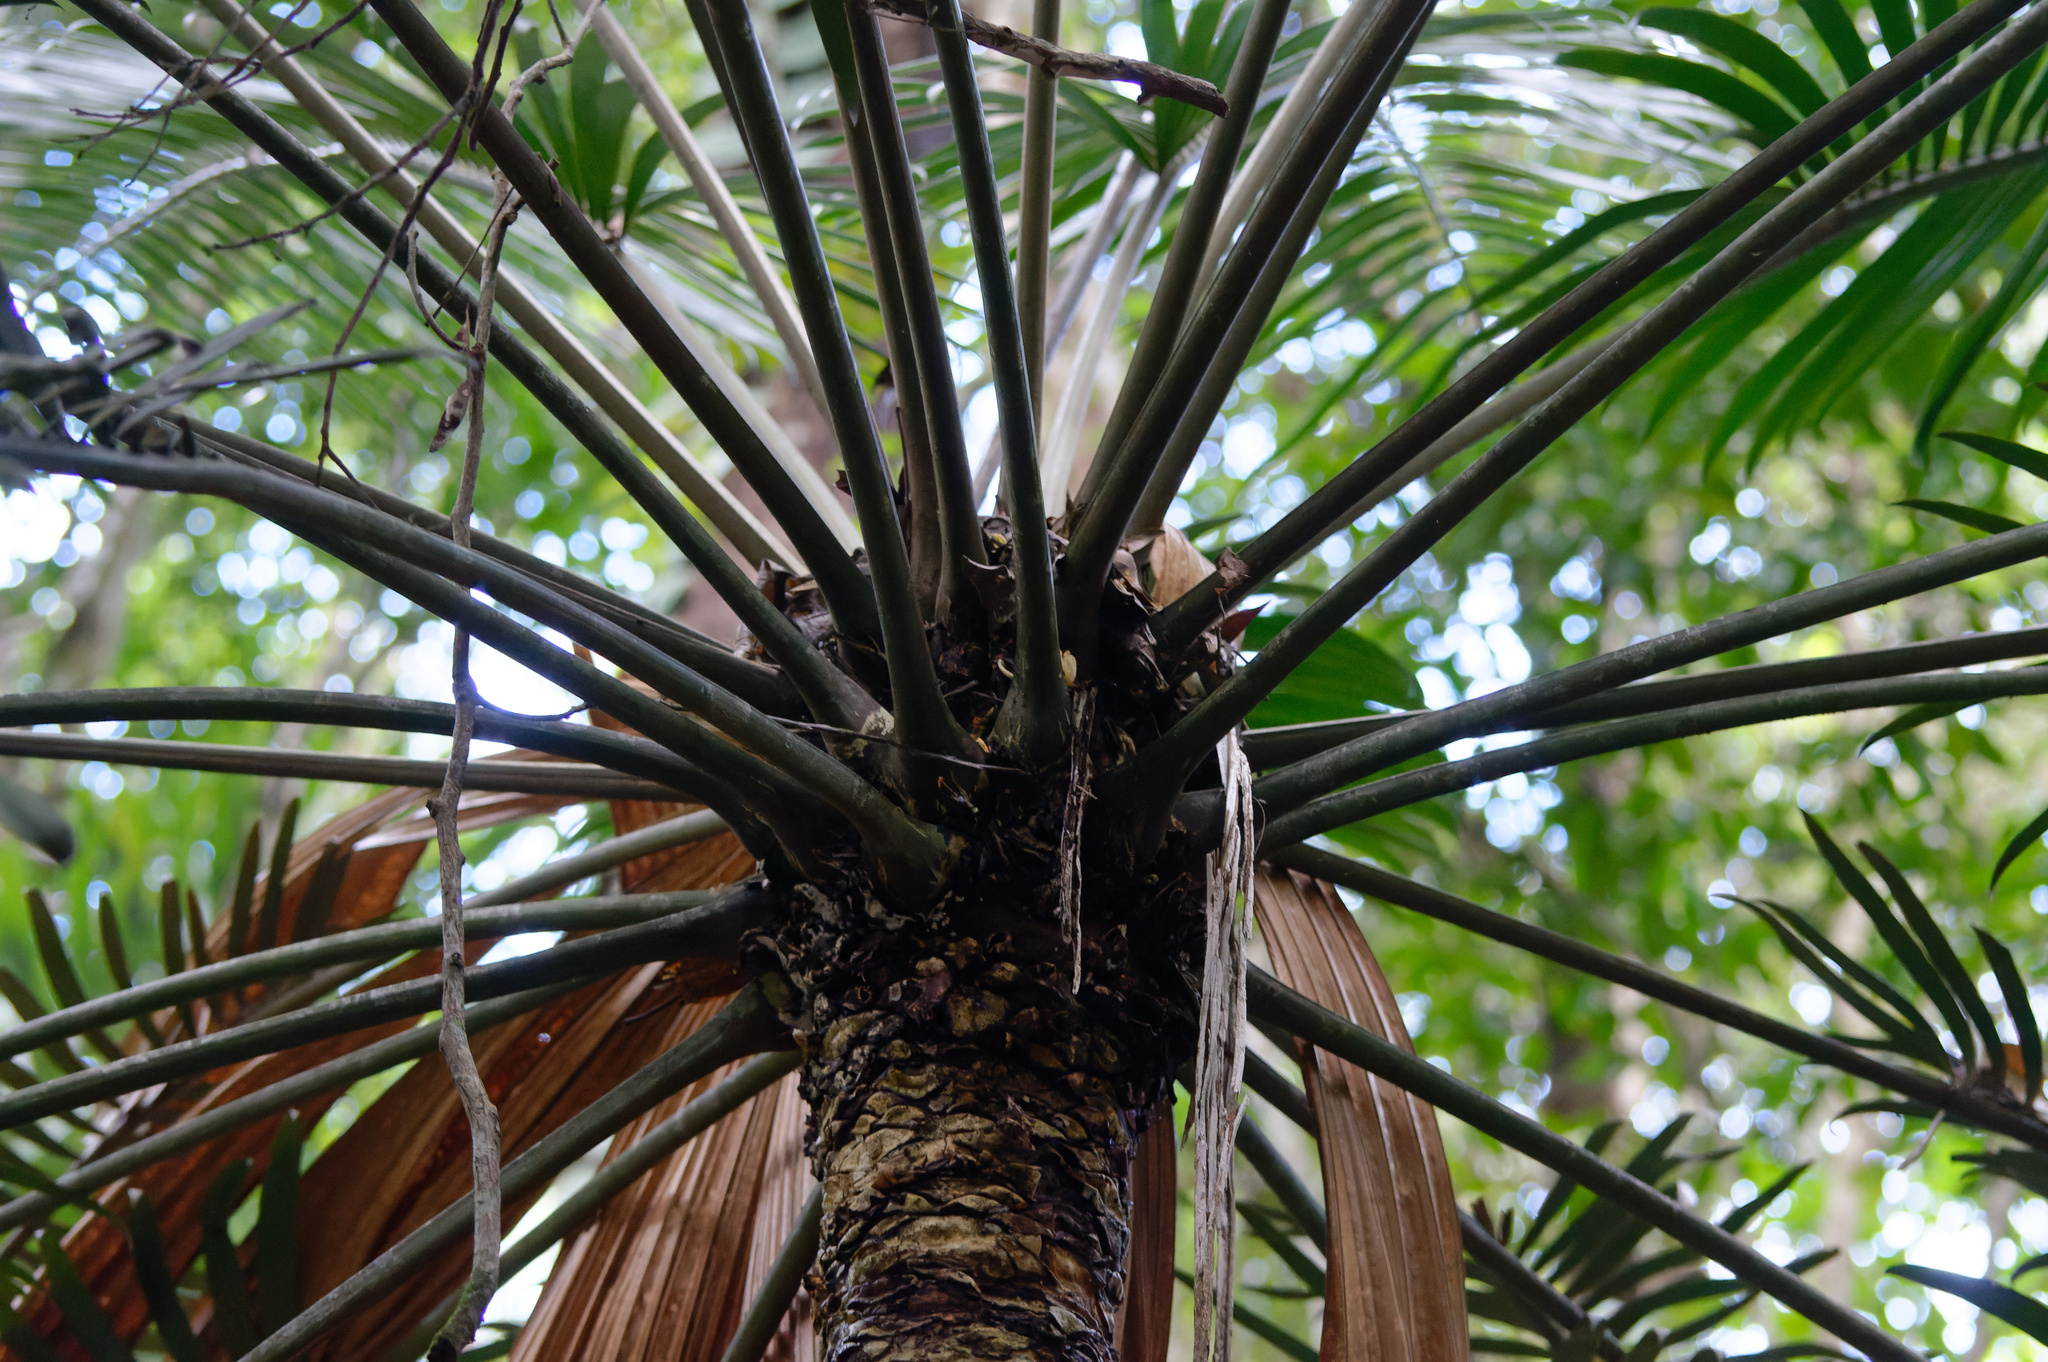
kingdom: Plantae
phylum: Tracheophyta
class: Cycadopsida
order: Cycadales
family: Zamiaceae
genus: Lepidozamia
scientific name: Lepidozamia hopei
